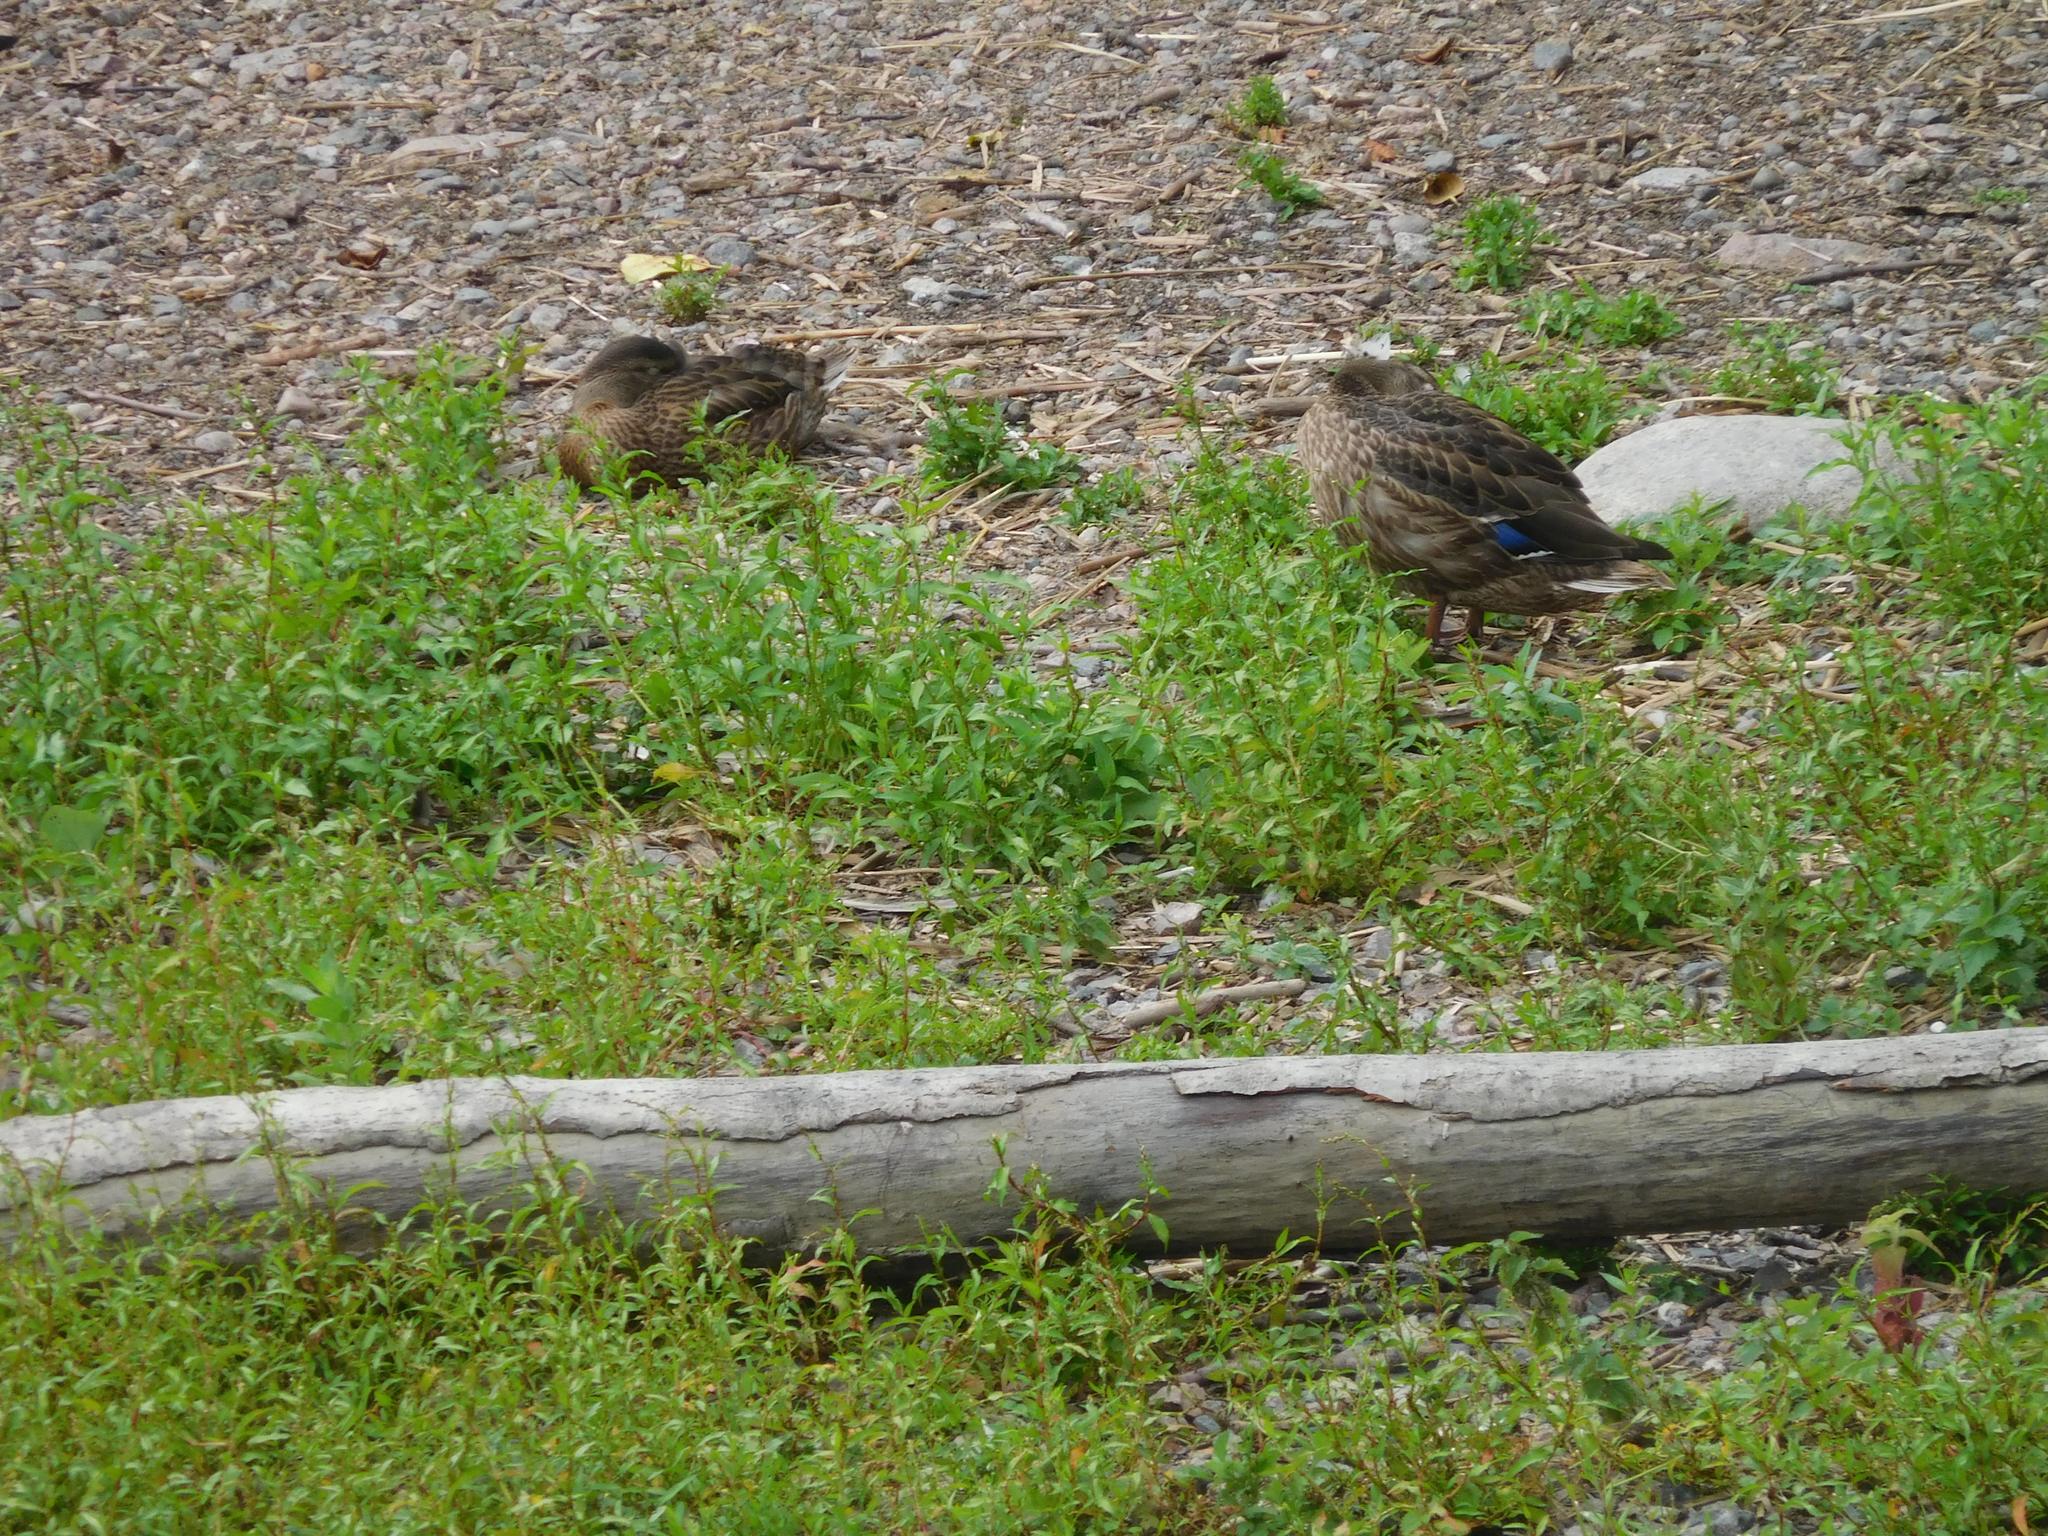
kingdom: Animalia
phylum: Chordata
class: Aves
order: Anseriformes
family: Anatidae
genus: Anas
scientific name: Anas platyrhynchos
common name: Mallard
